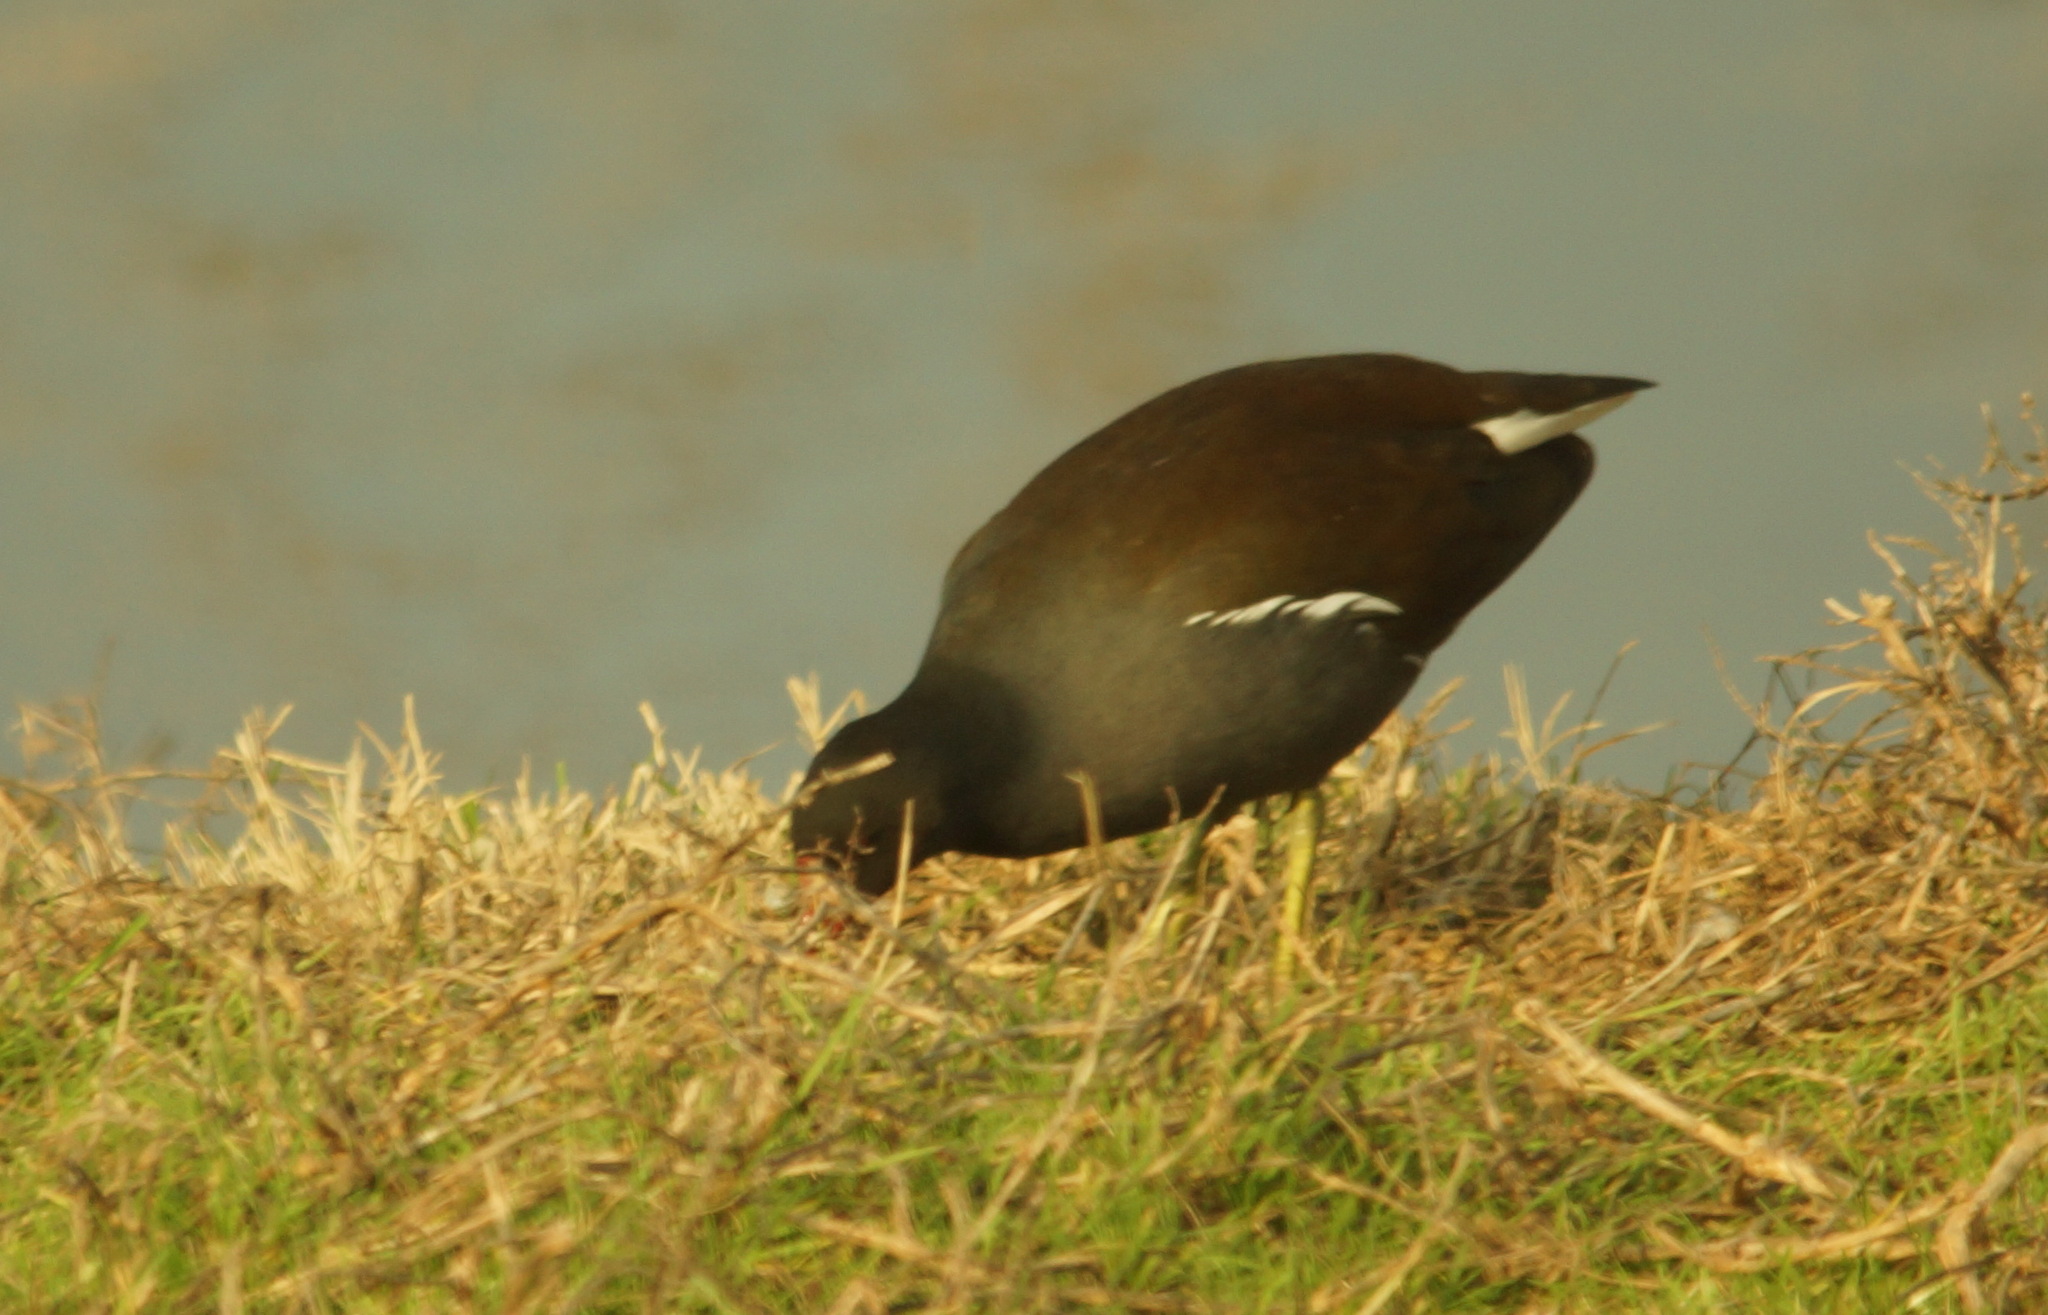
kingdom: Animalia
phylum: Chordata
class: Aves
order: Gruiformes
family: Rallidae
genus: Gallinula
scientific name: Gallinula chloropus
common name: Common moorhen
